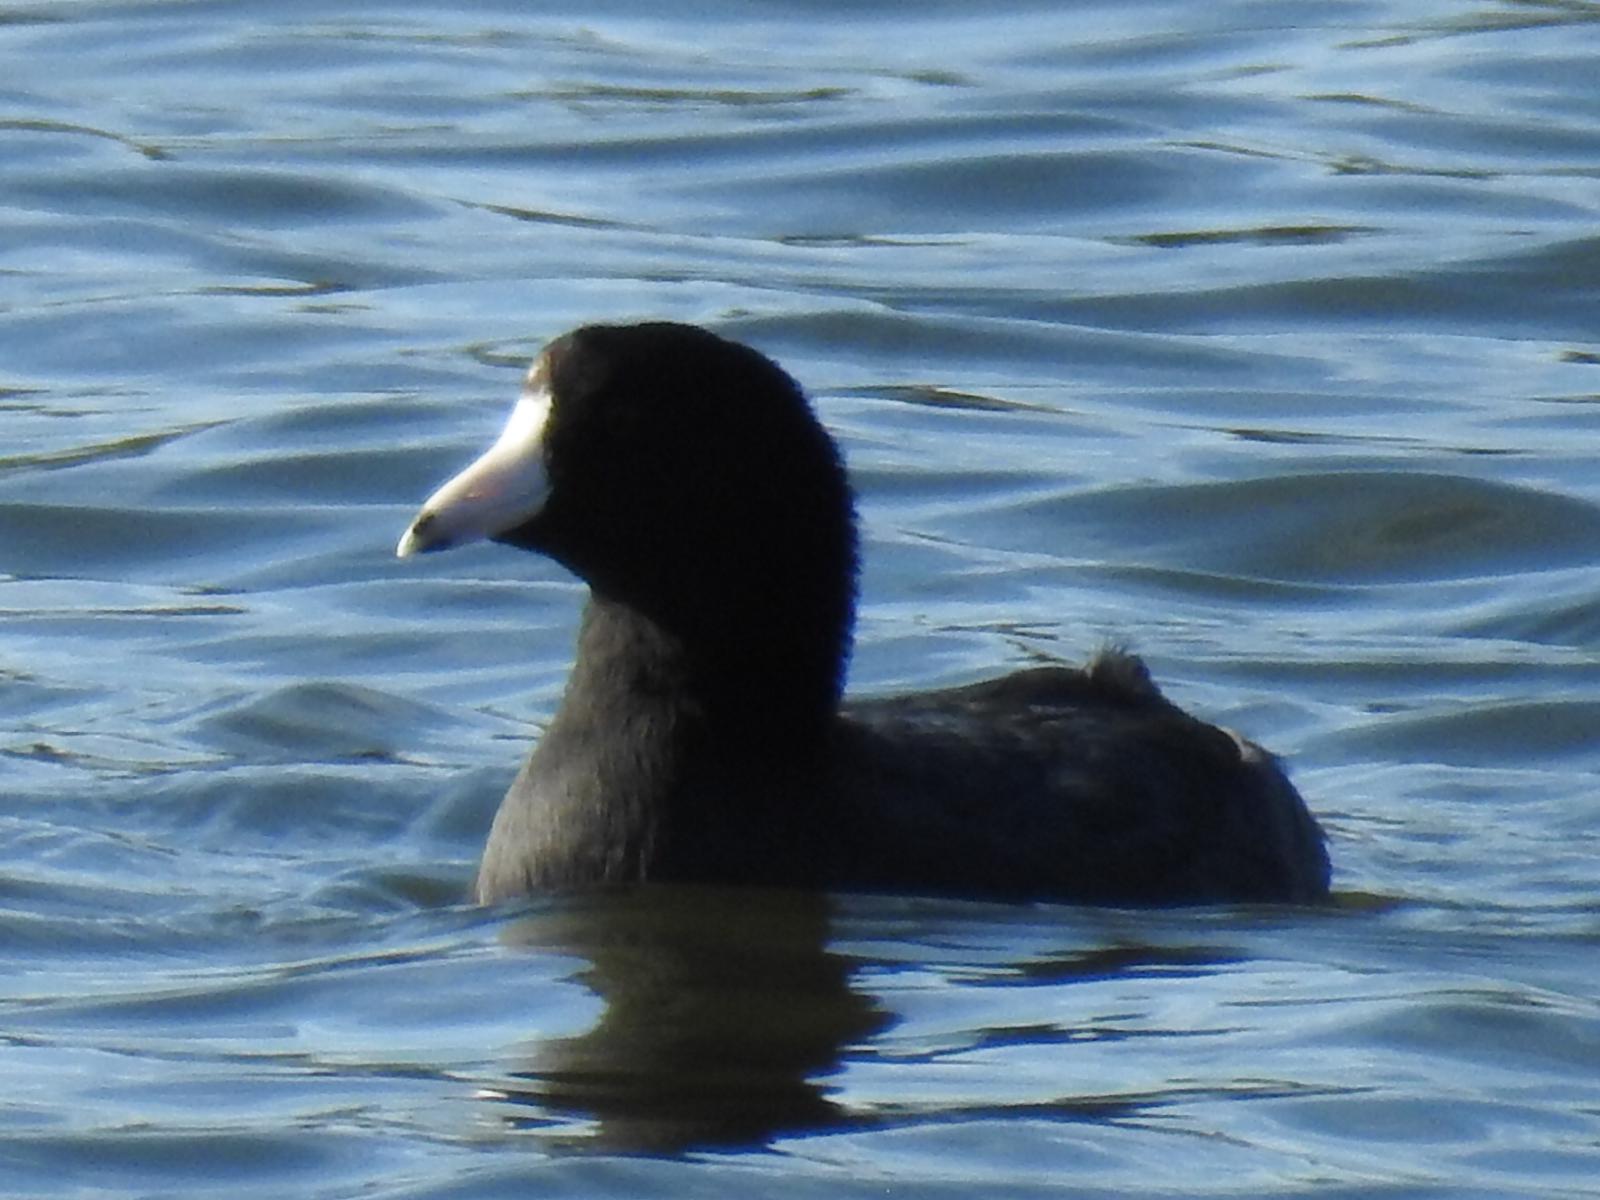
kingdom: Animalia
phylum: Chordata
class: Aves
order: Gruiformes
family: Rallidae
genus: Fulica
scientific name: Fulica americana
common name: American coot
